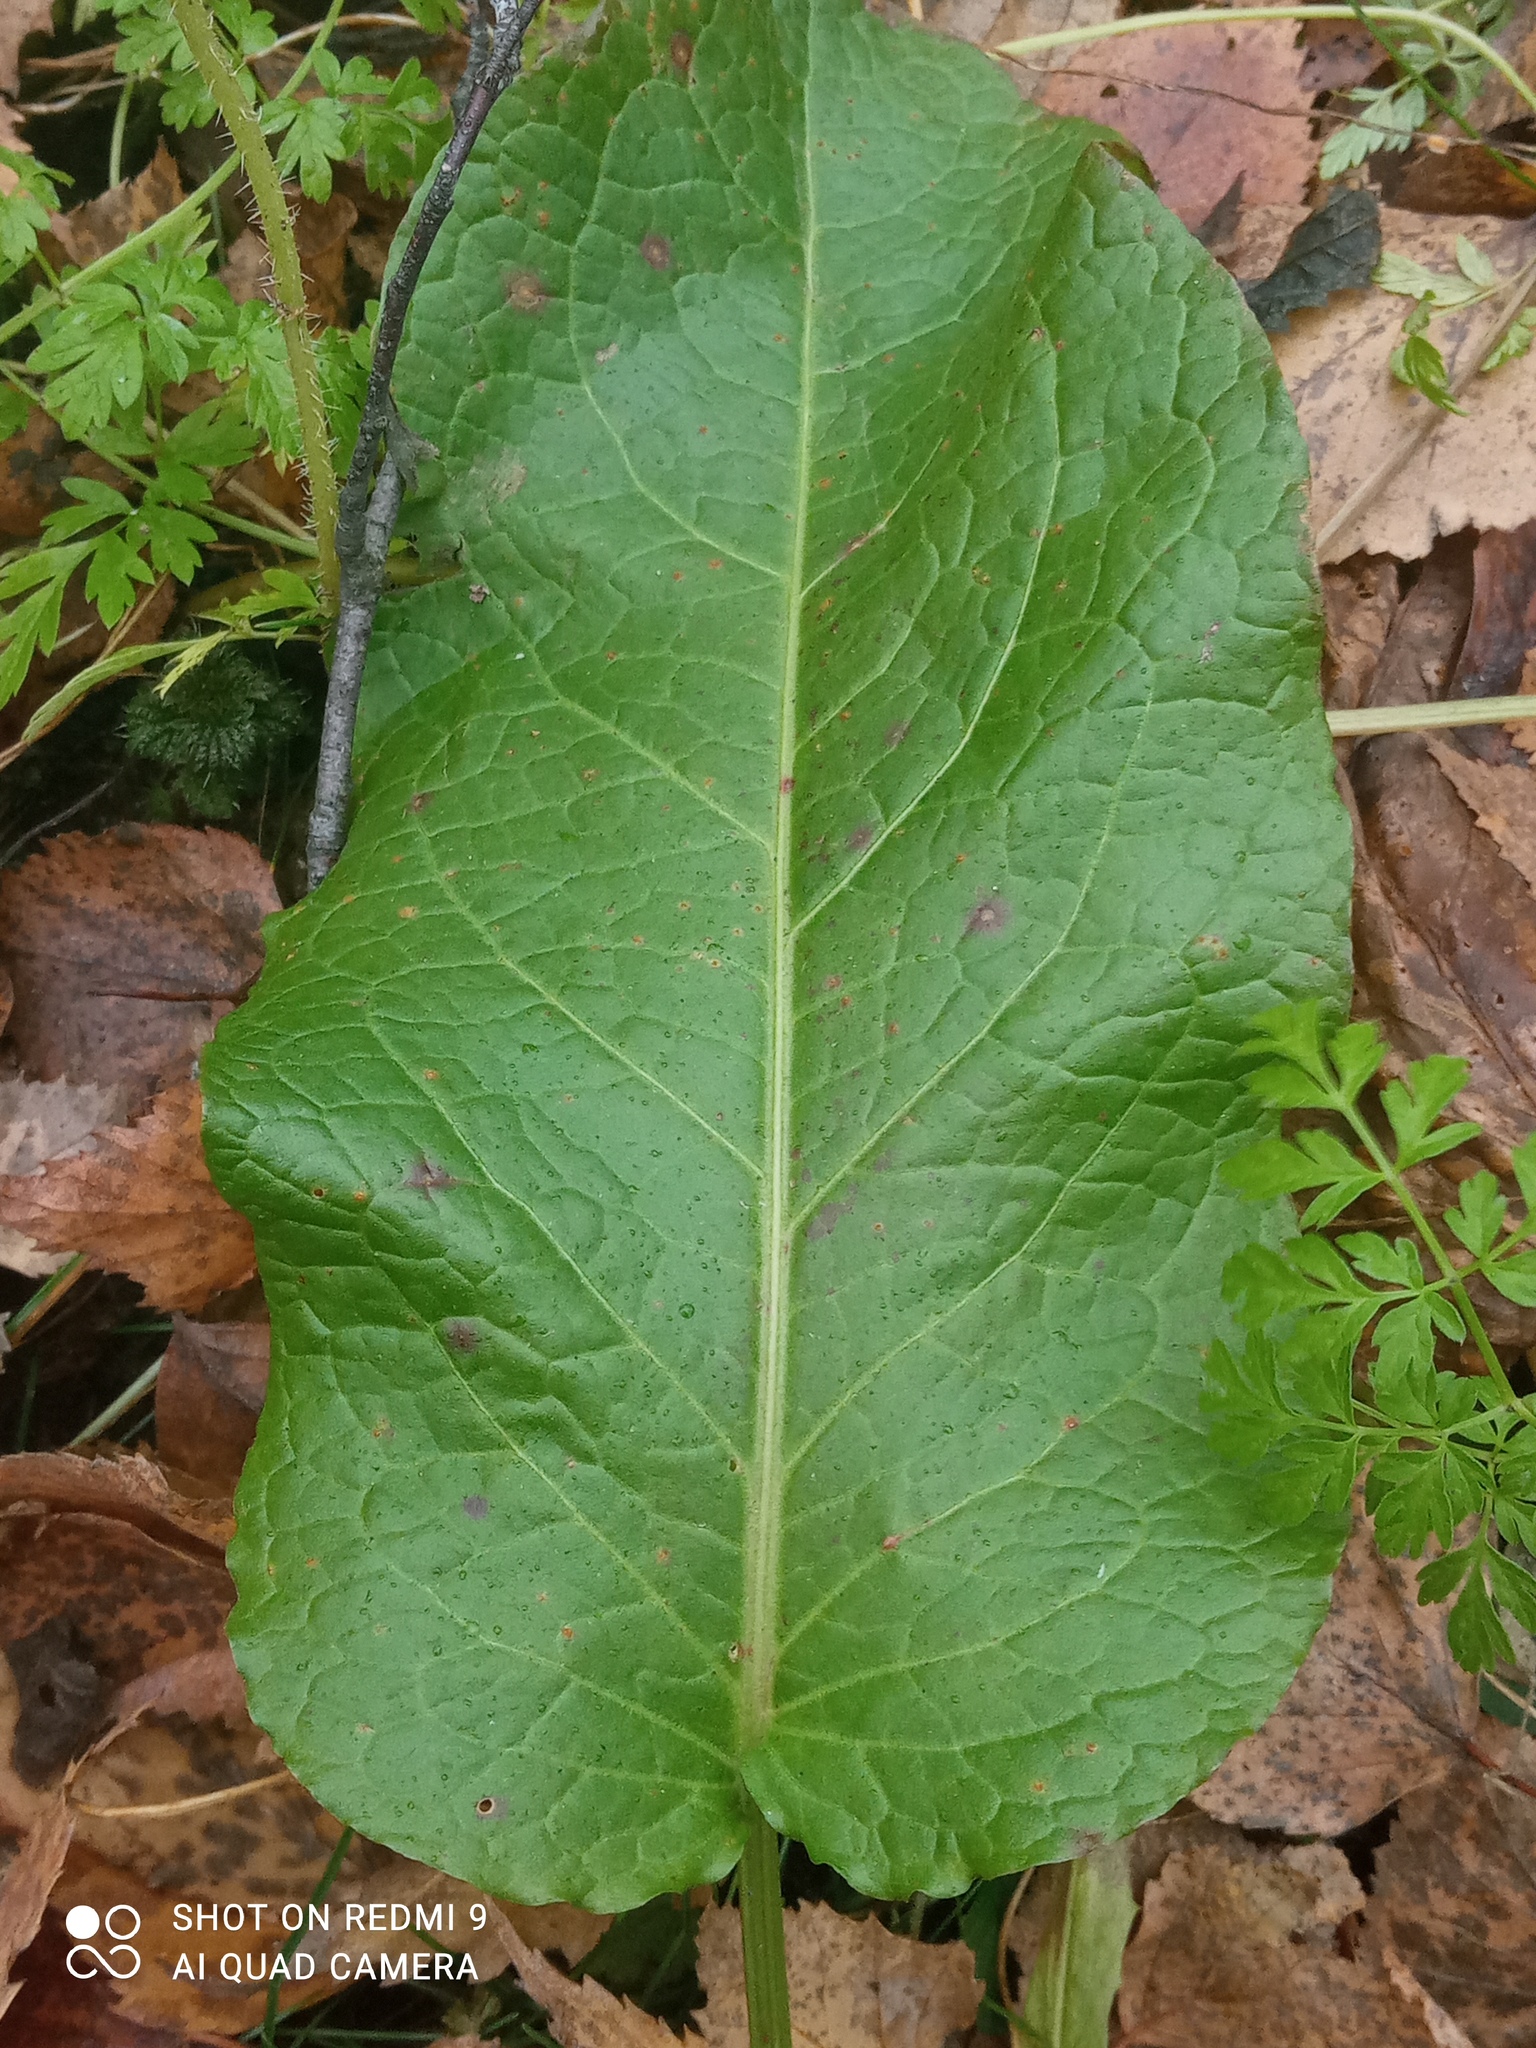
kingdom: Plantae
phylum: Tracheophyta
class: Magnoliopsida
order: Caryophyllales
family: Polygonaceae
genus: Rumex
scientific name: Rumex obtusifolius
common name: Bitter dock
